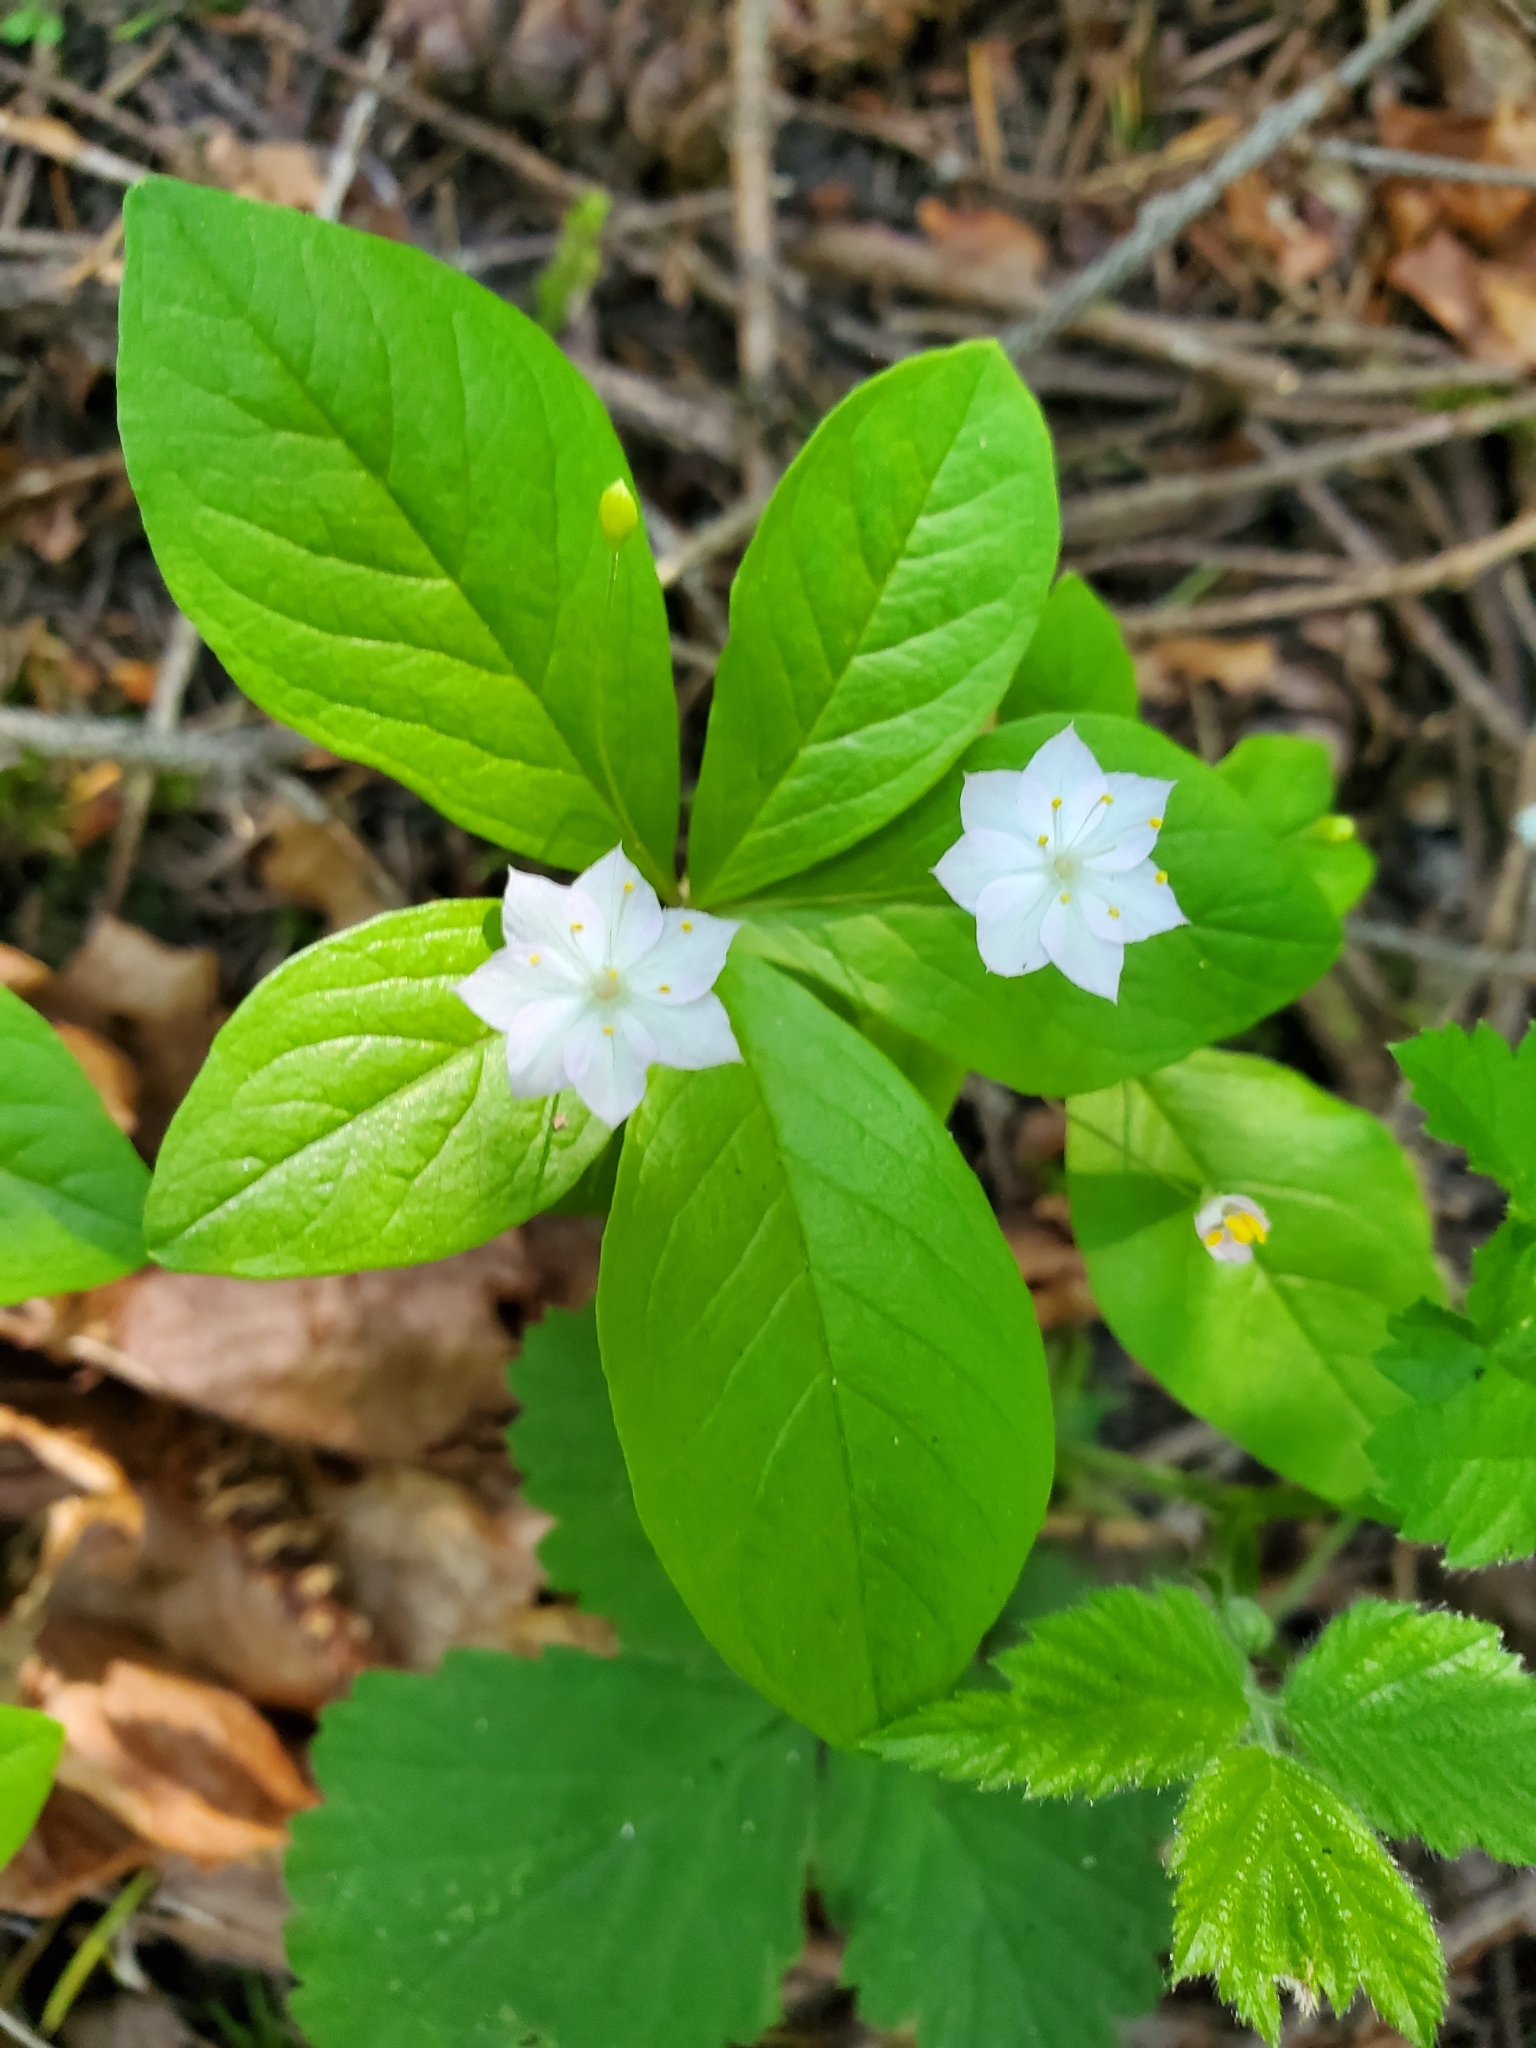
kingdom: Plantae
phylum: Tracheophyta
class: Magnoliopsida
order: Ericales
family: Primulaceae
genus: Lysimachia
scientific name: Lysimachia latifolia
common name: Pacific starflower
